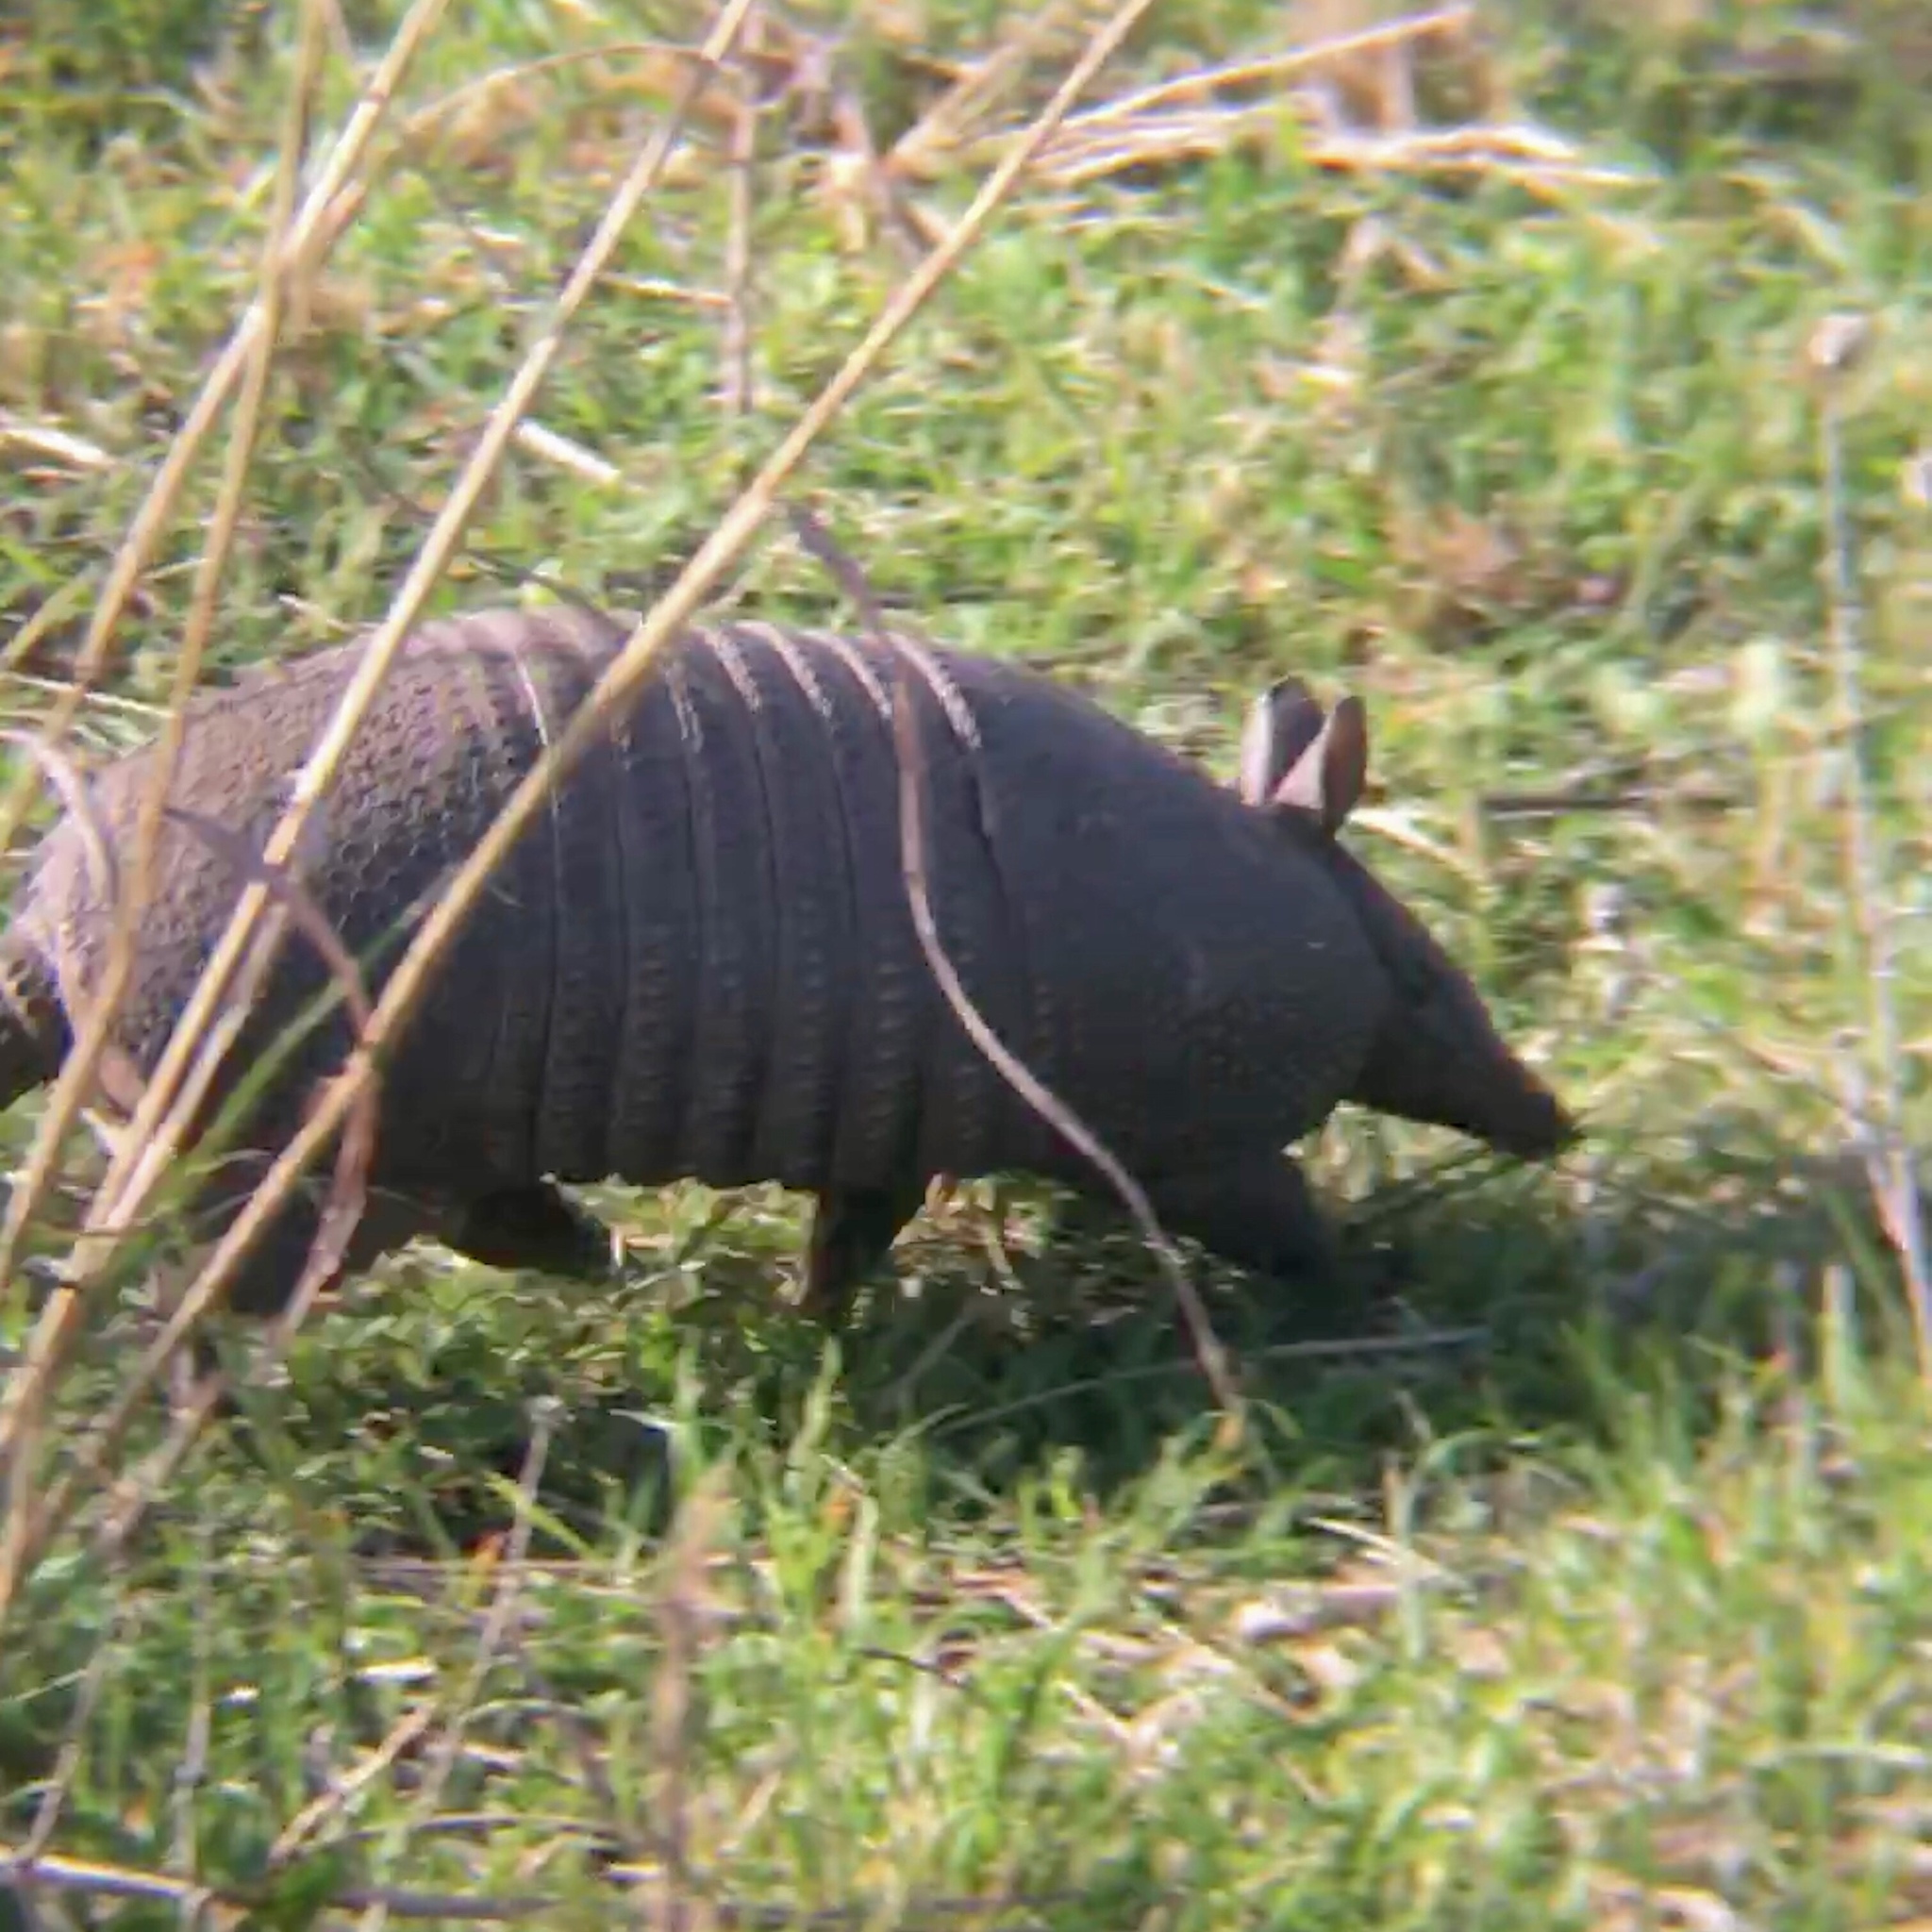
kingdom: Animalia
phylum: Chordata
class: Mammalia
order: Cingulata
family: Dasypodidae
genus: Dasypus
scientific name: Dasypus septemcinctus
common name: Seven-banded armadillo
